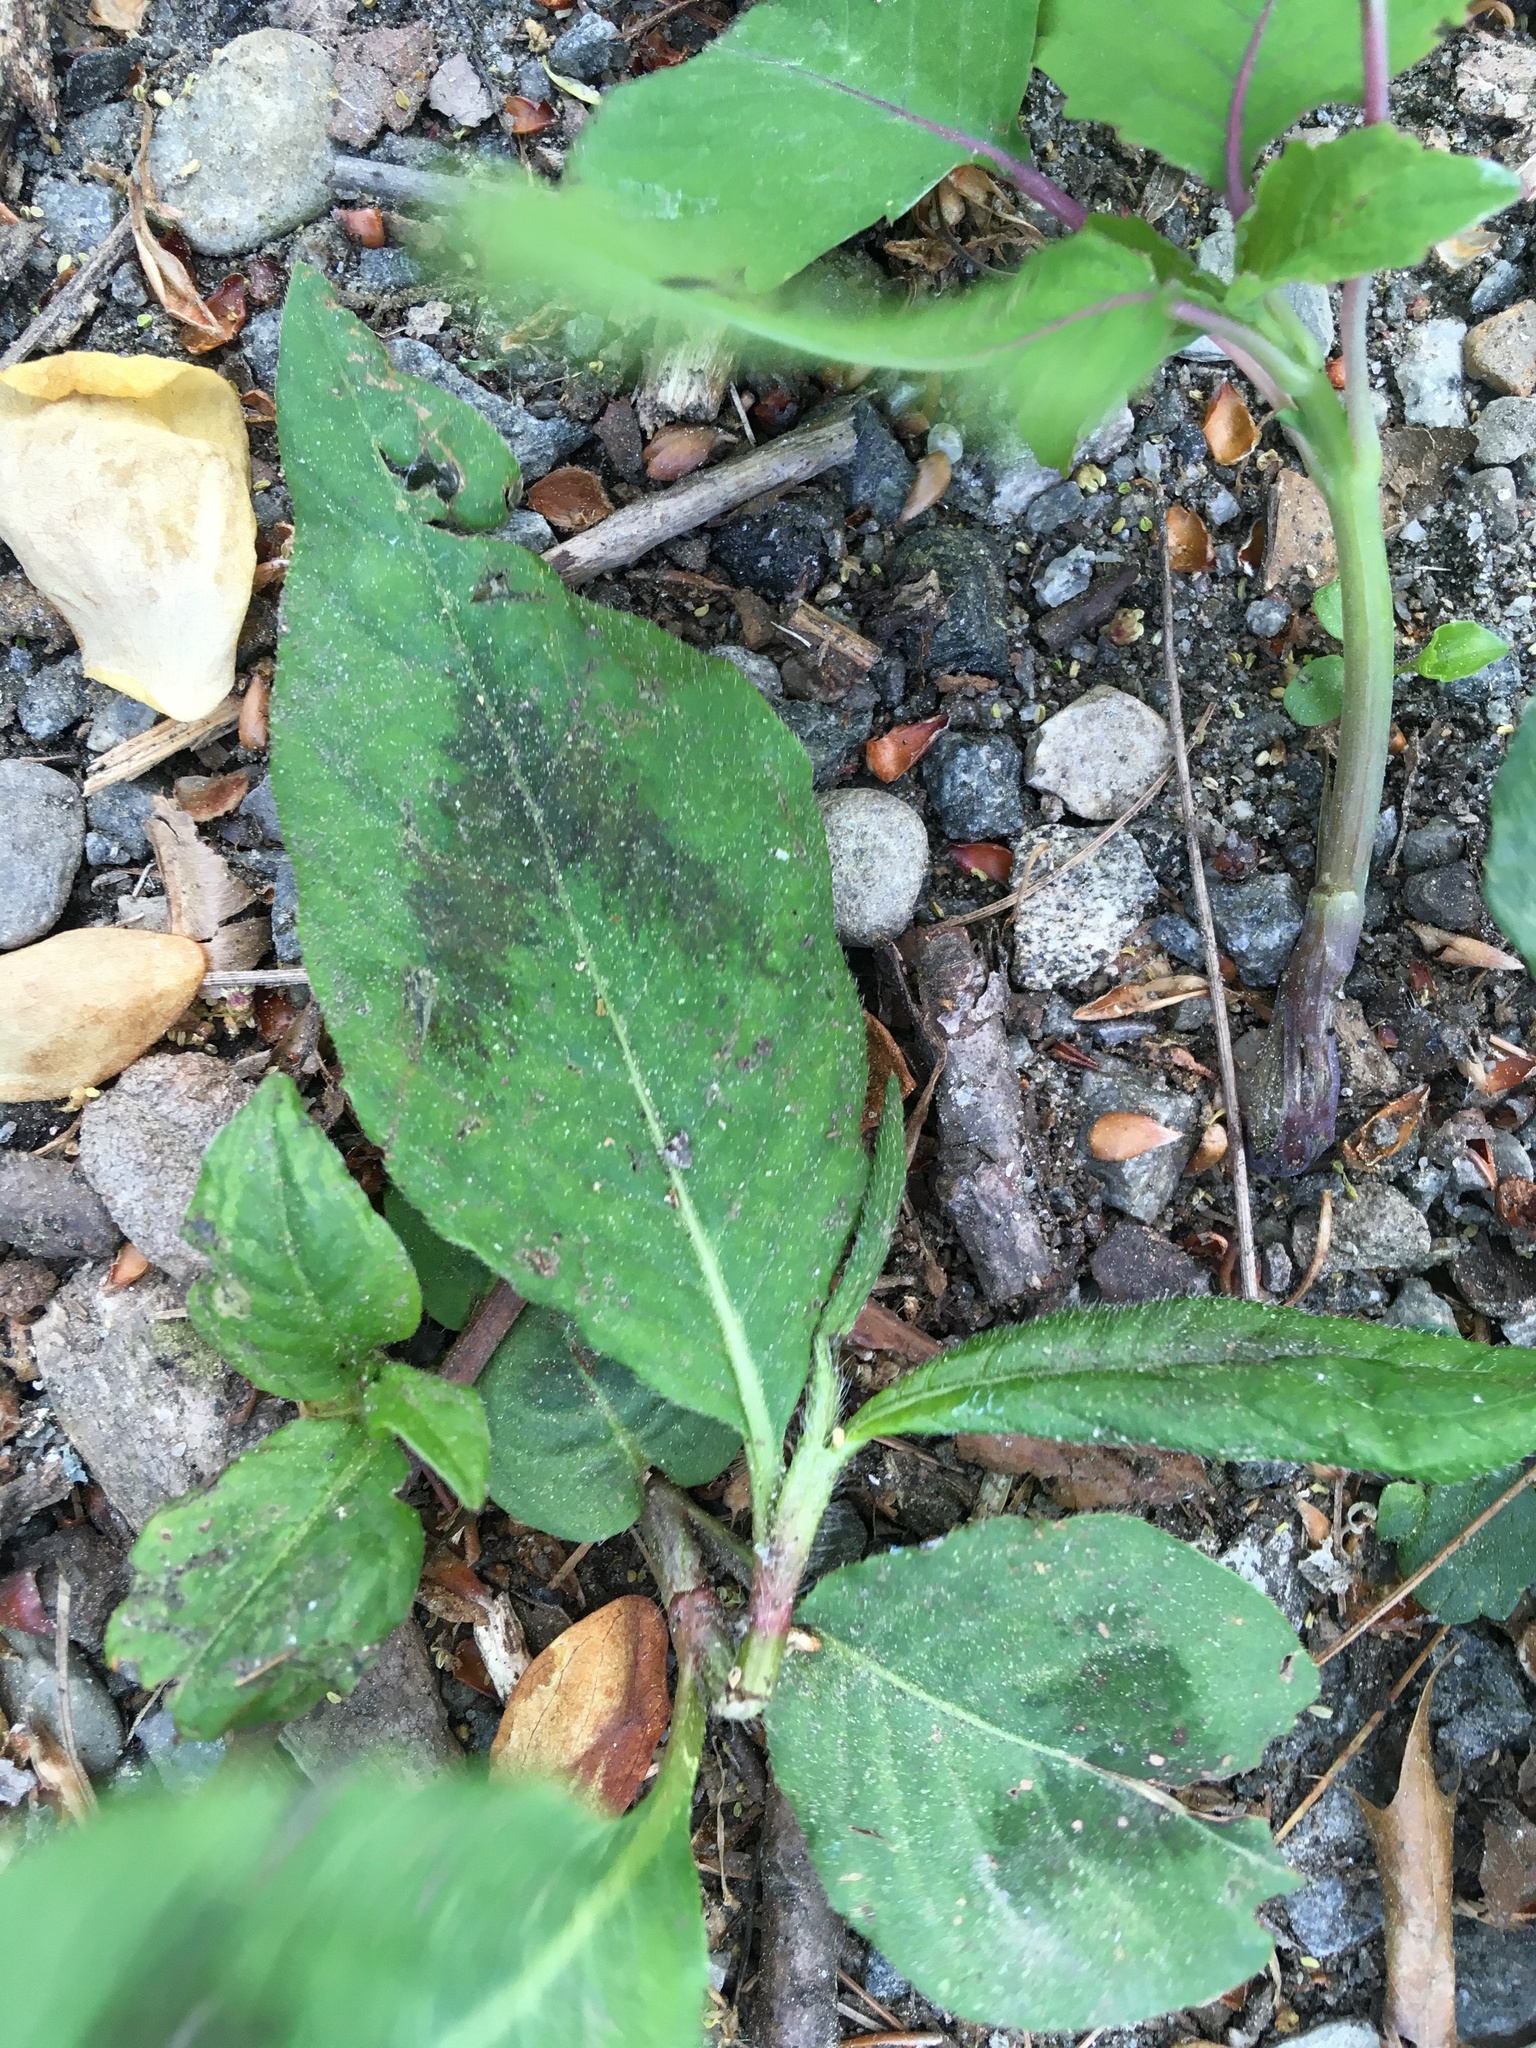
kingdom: Plantae
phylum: Tracheophyta
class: Magnoliopsida
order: Caryophyllales
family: Polygonaceae
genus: Persicaria
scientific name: Persicaria virginiana
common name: Jumpseed
